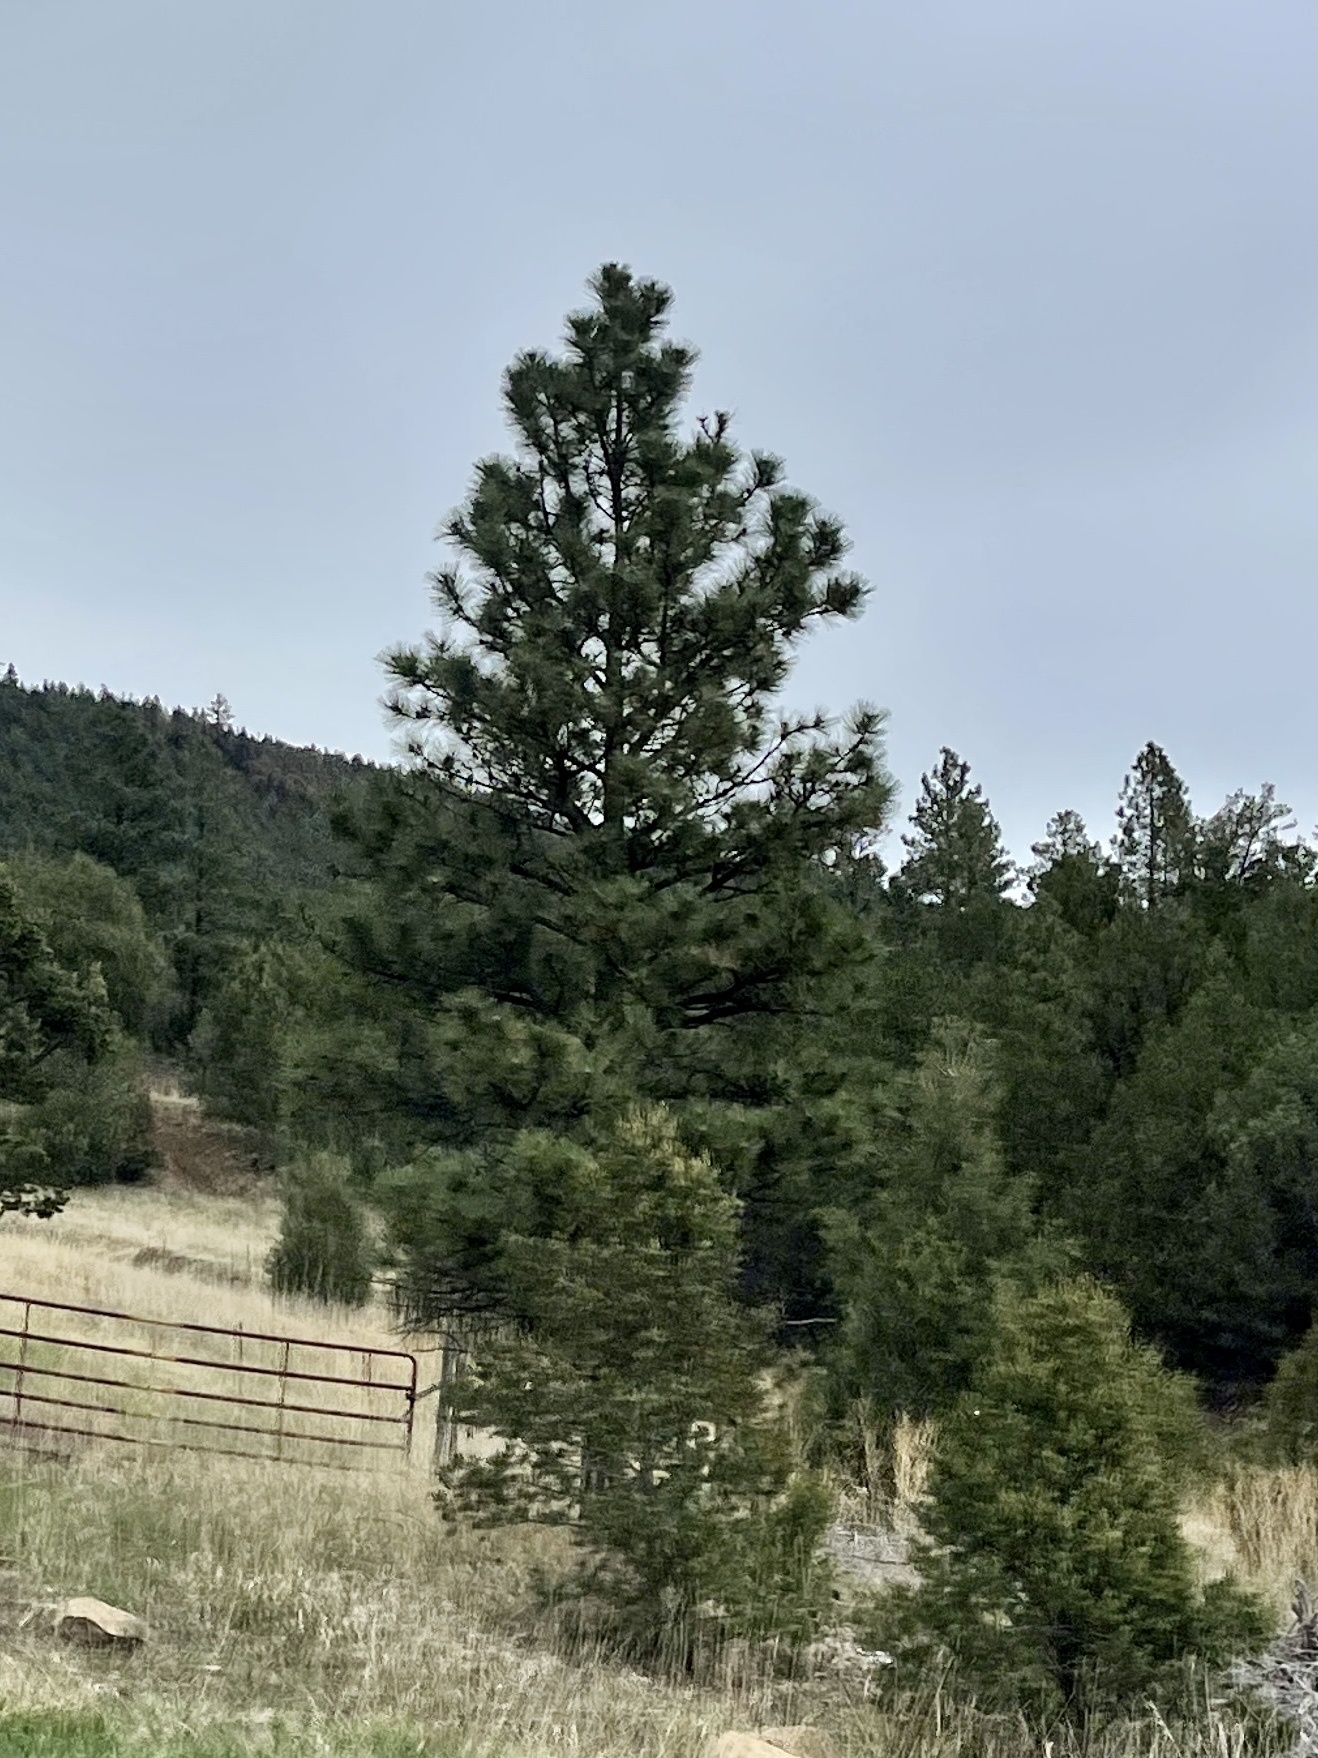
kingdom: Plantae
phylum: Tracheophyta
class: Pinopsida
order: Pinales
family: Pinaceae
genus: Pinus
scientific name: Pinus ponderosa
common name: Western yellow-pine
